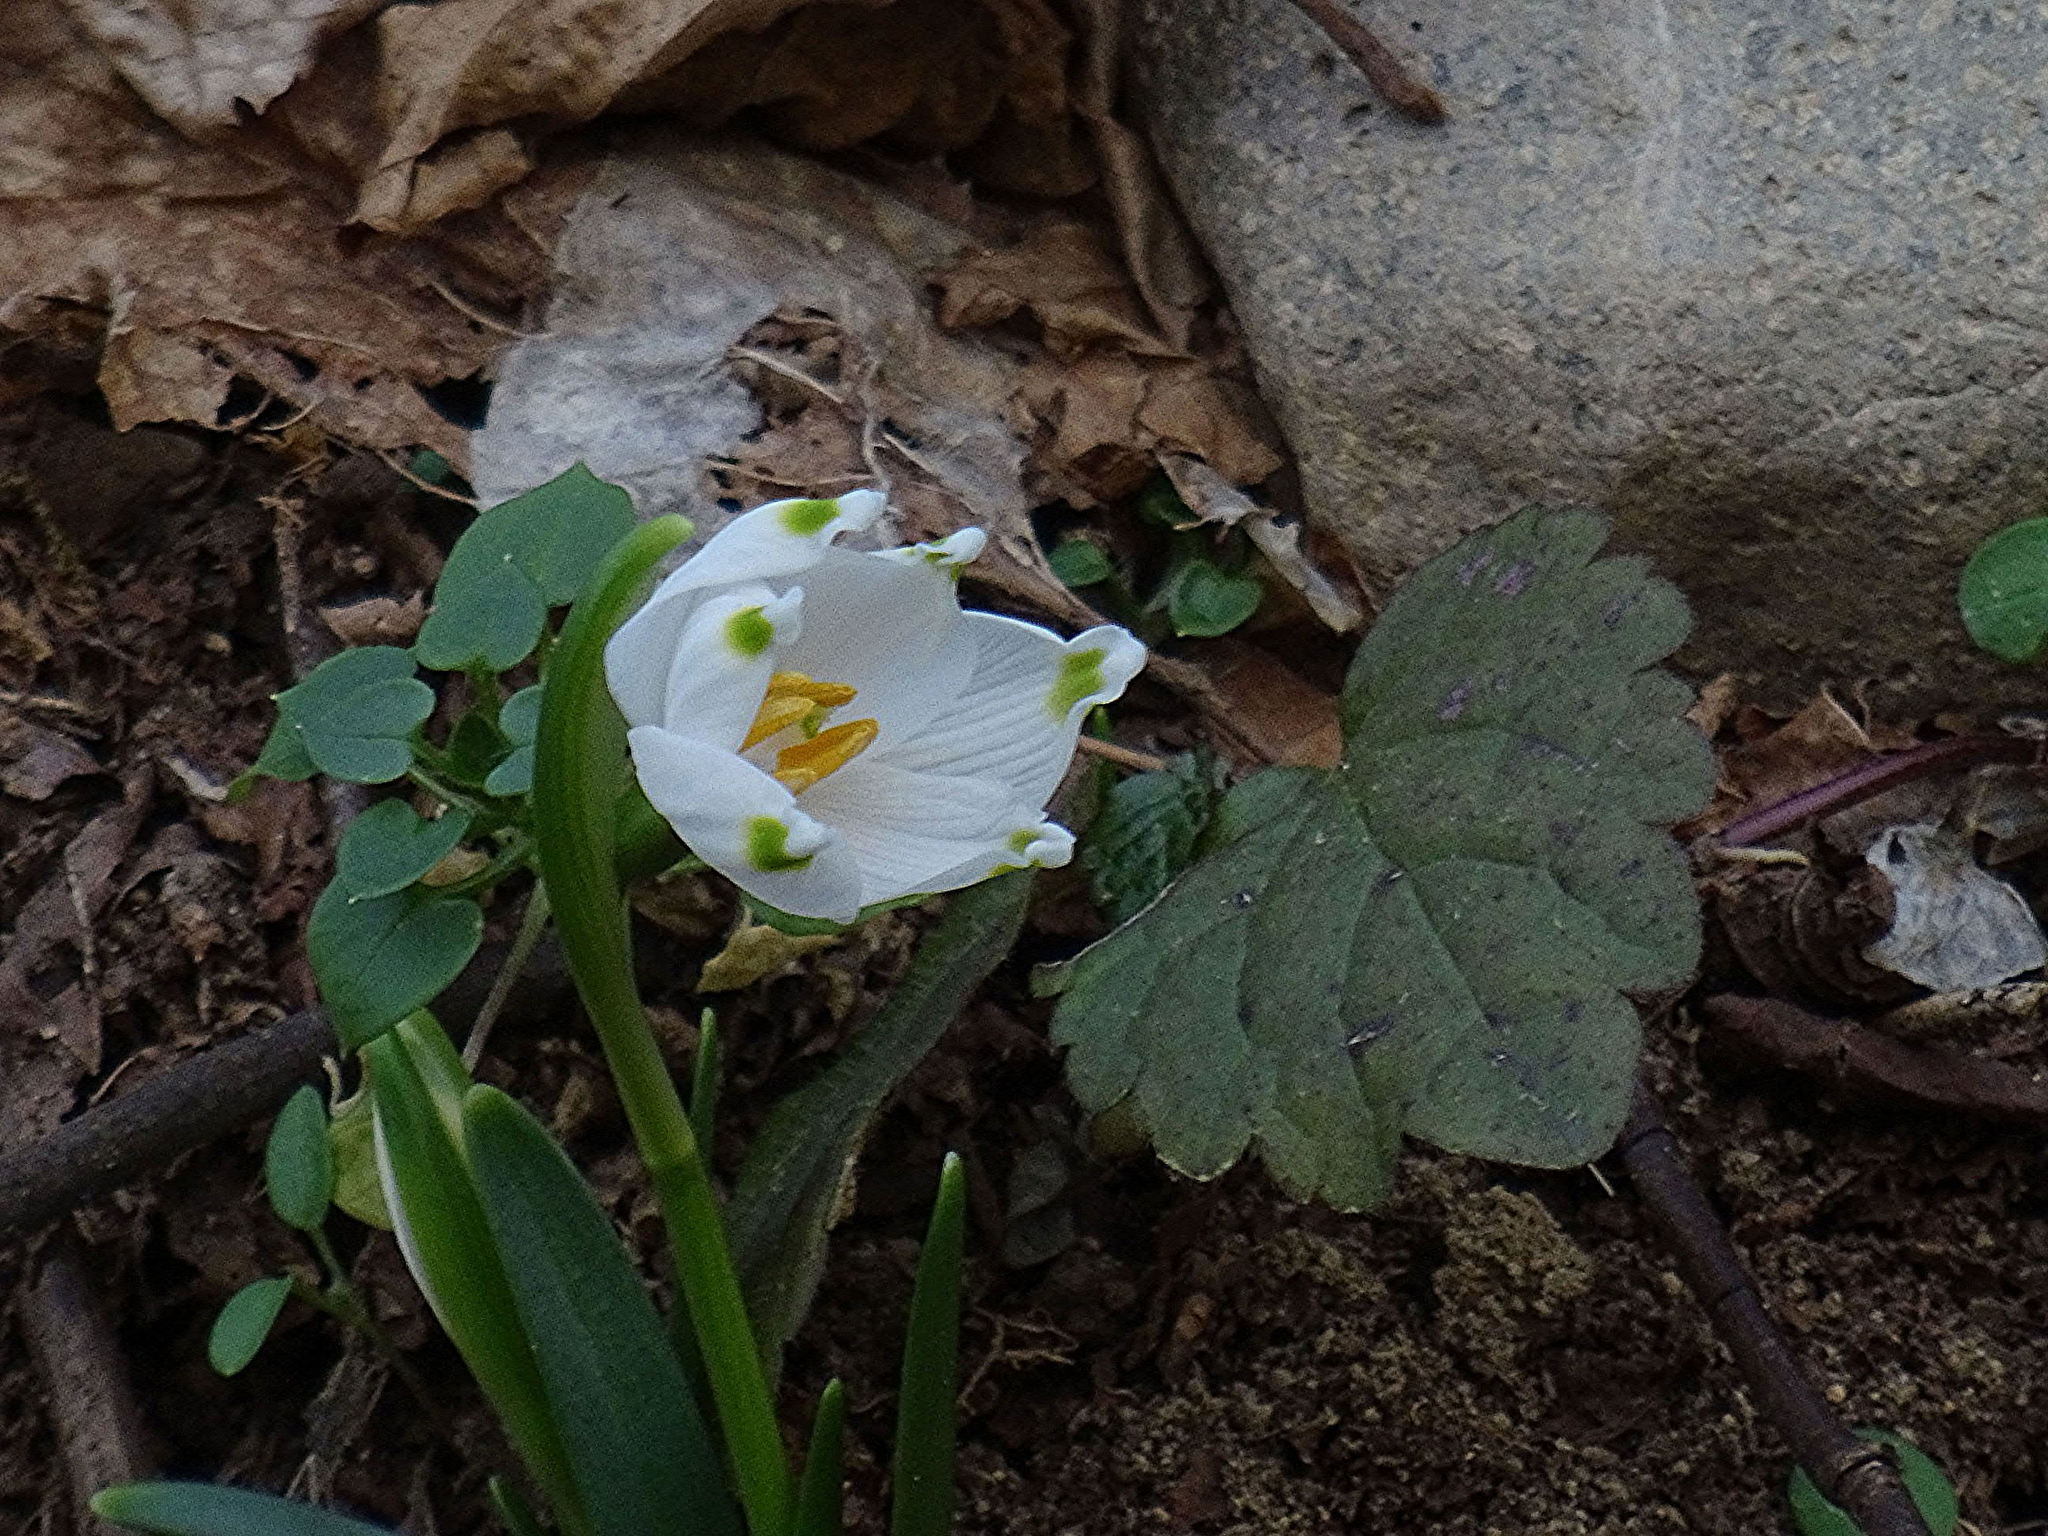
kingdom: Plantae
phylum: Tracheophyta
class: Liliopsida
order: Asparagales
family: Amaryllidaceae
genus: Leucojum
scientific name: Leucojum vernum
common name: Spring snowflake
